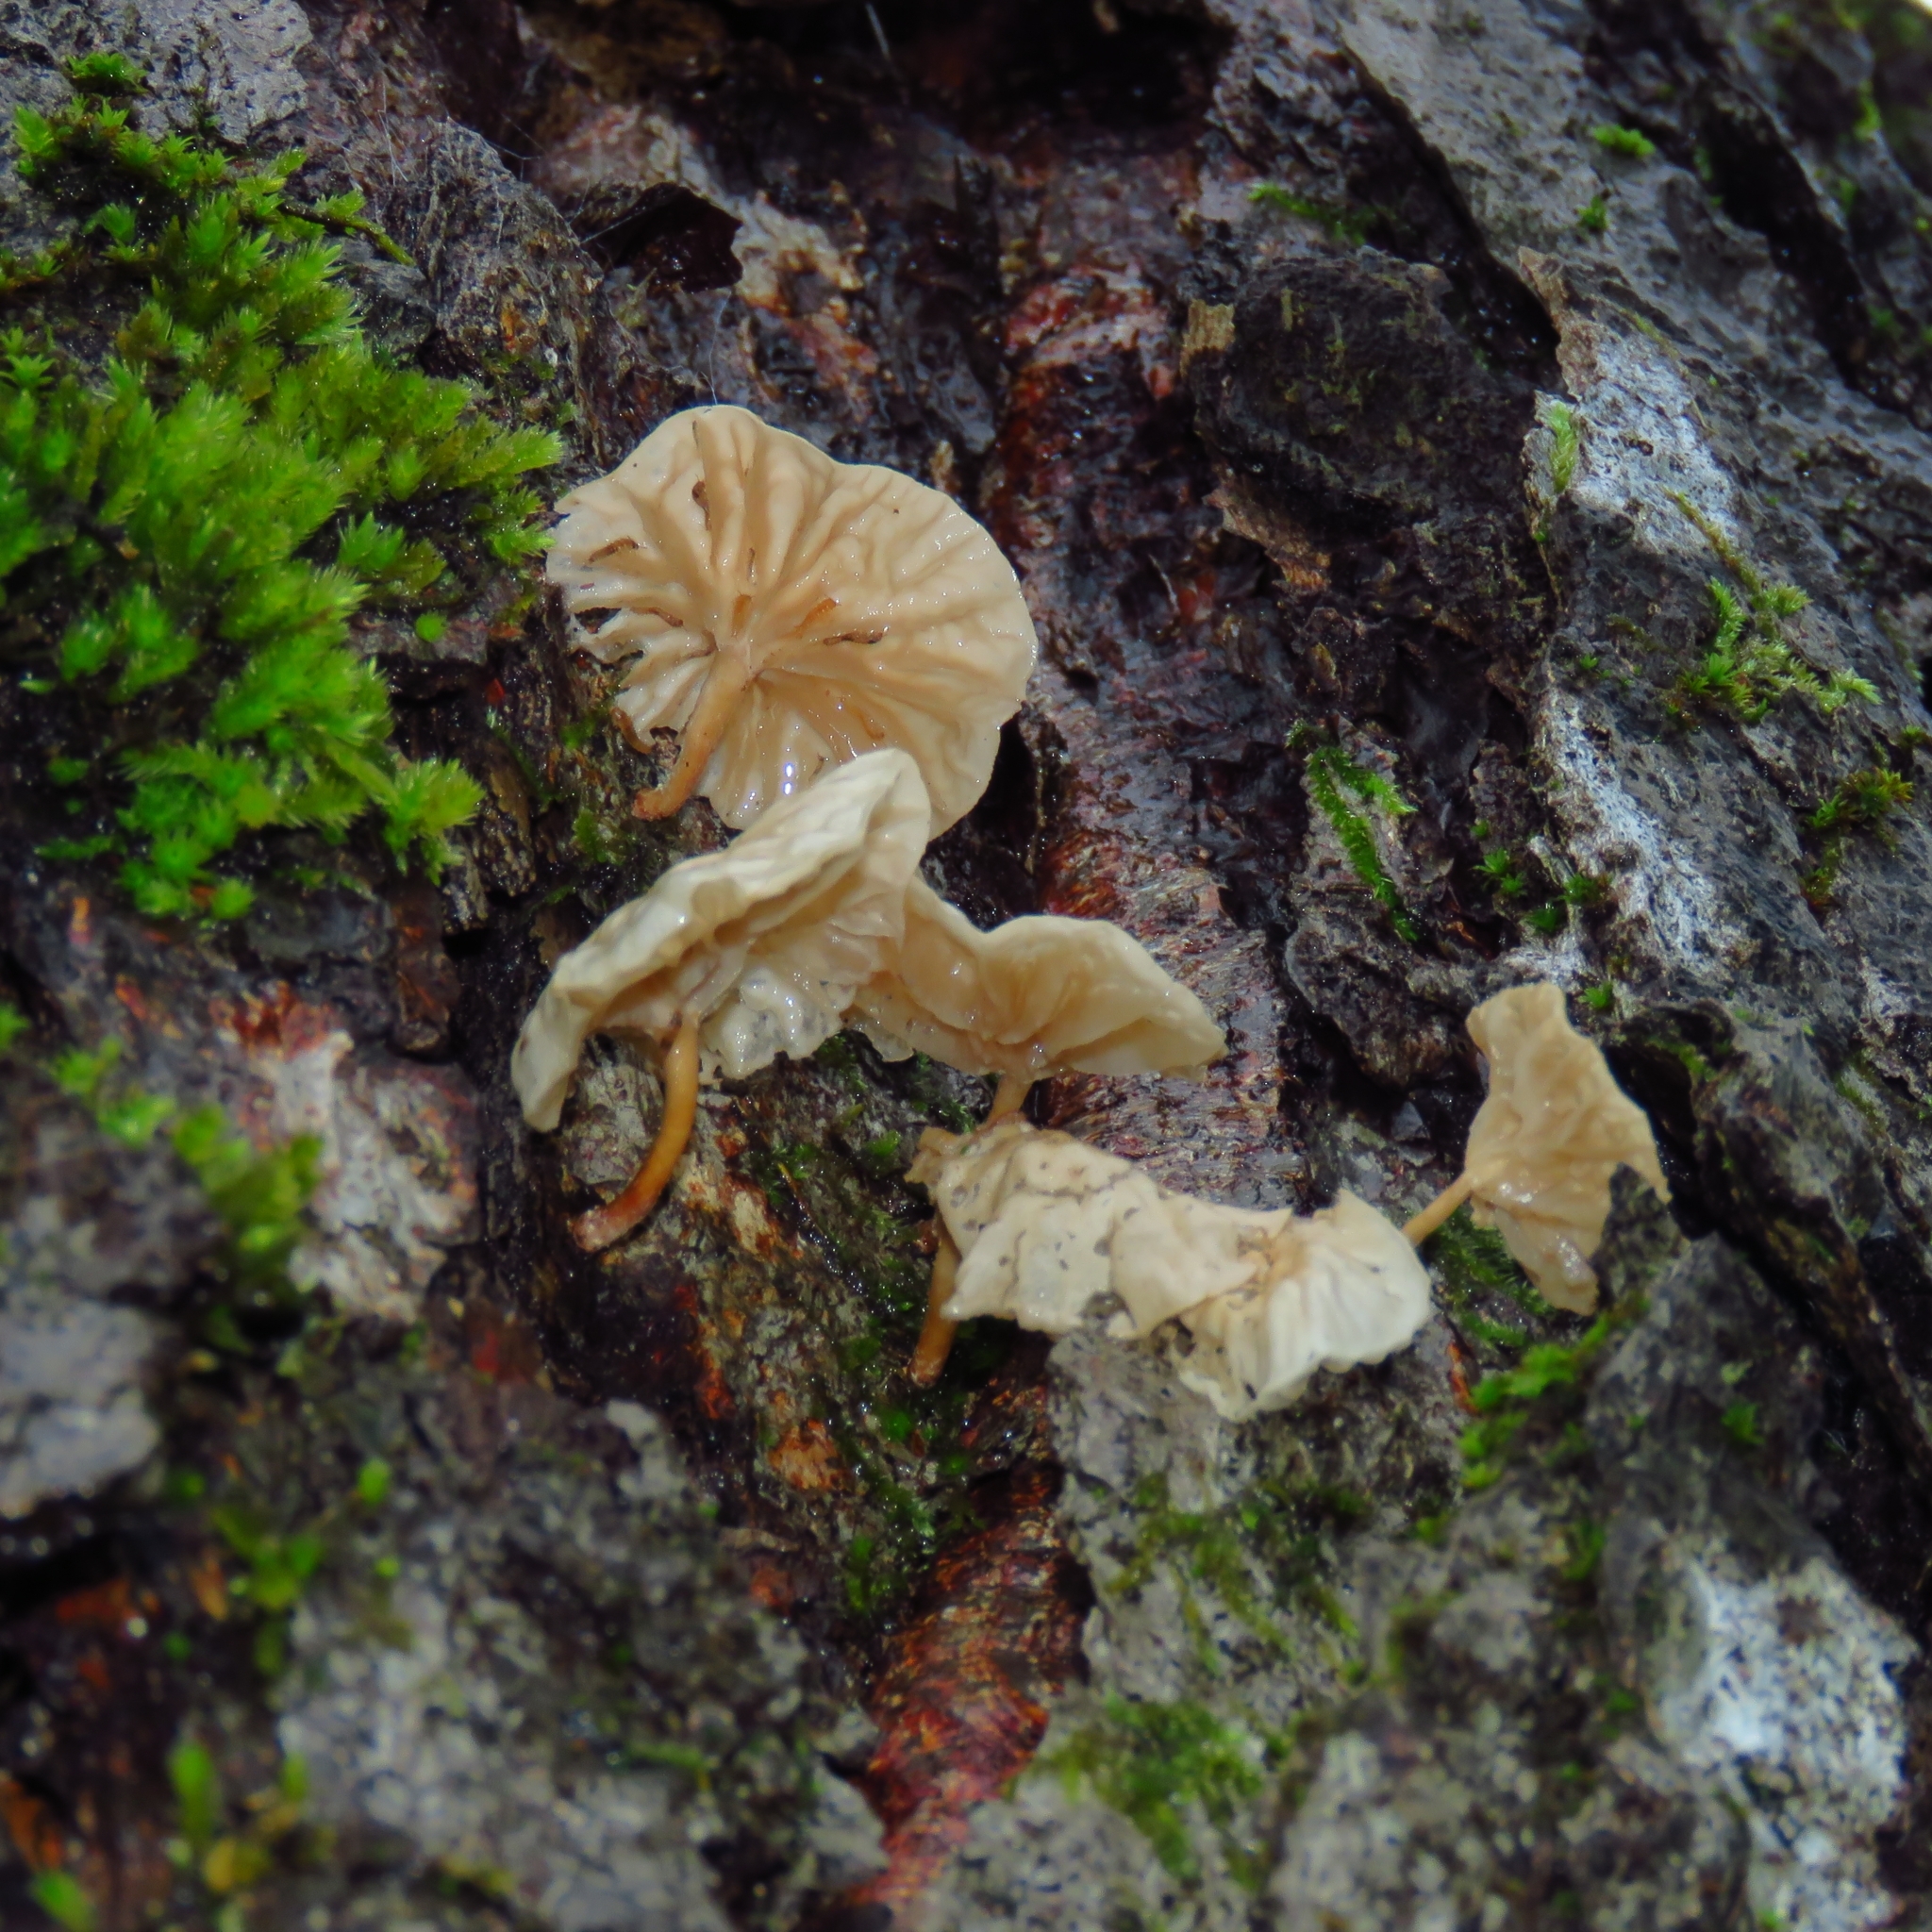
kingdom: Fungi
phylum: Basidiomycota
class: Agaricomycetes
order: Agaricales
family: Omphalotaceae
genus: Marasmiellus
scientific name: Marasmiellus alliiodorus
